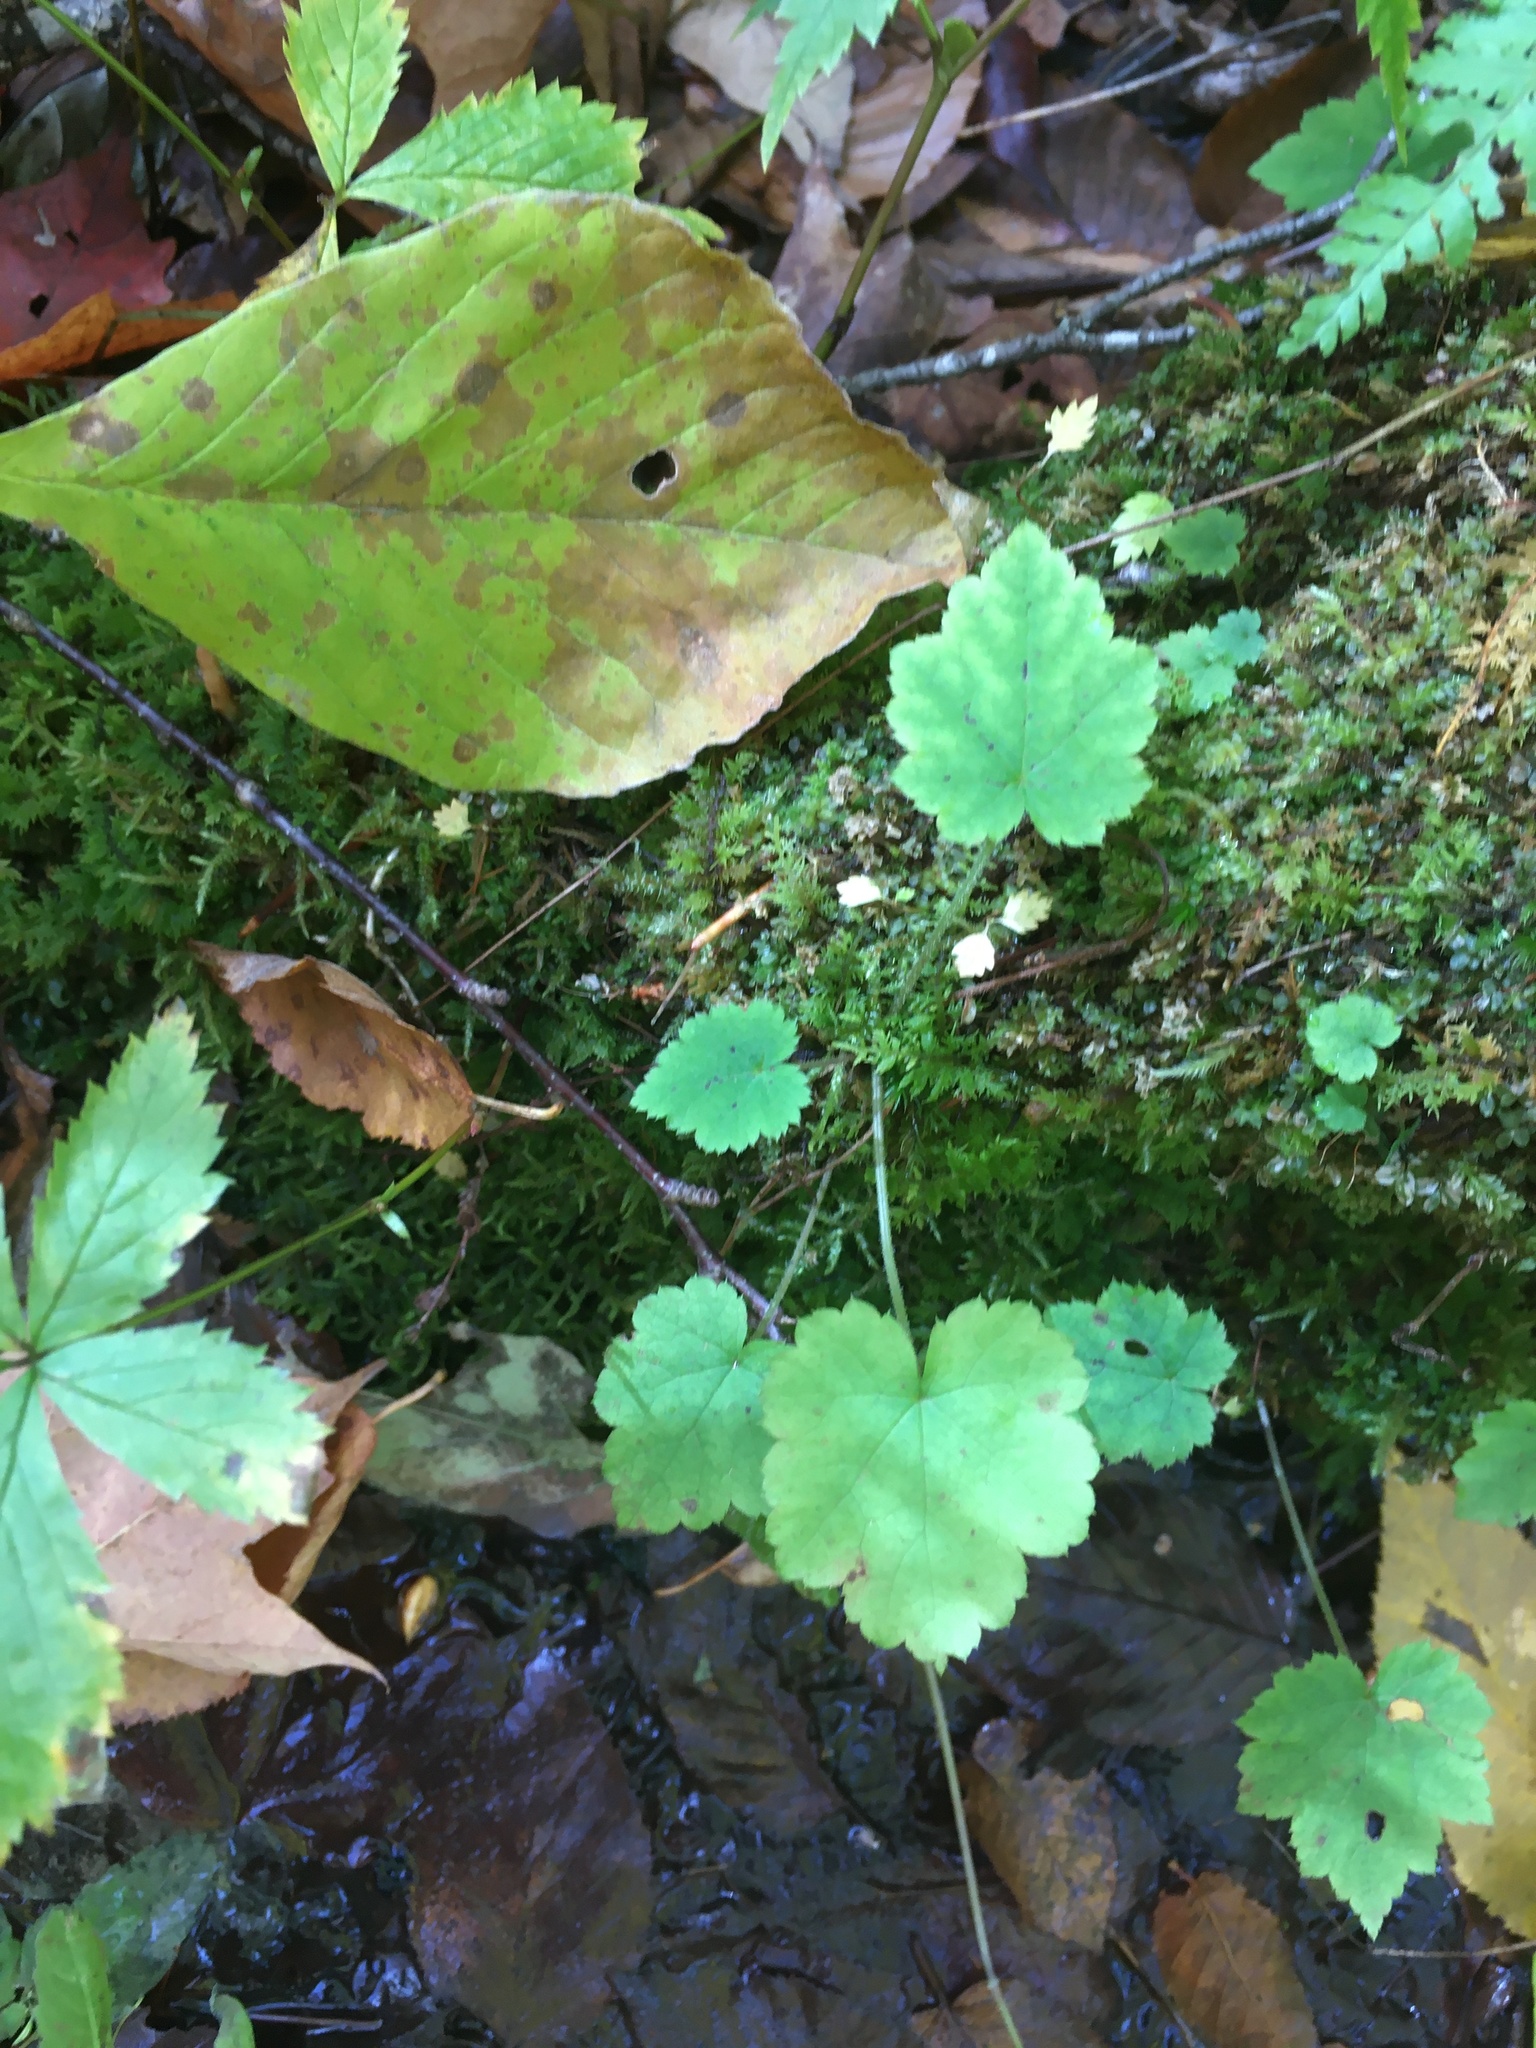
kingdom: Plantae
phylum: Tracheophyta
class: Magnoliopsida
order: Saxifragales
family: Saxifragaceae
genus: Tiarella
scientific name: Tiarella stolonifera
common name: Stoloniferous foamflower
